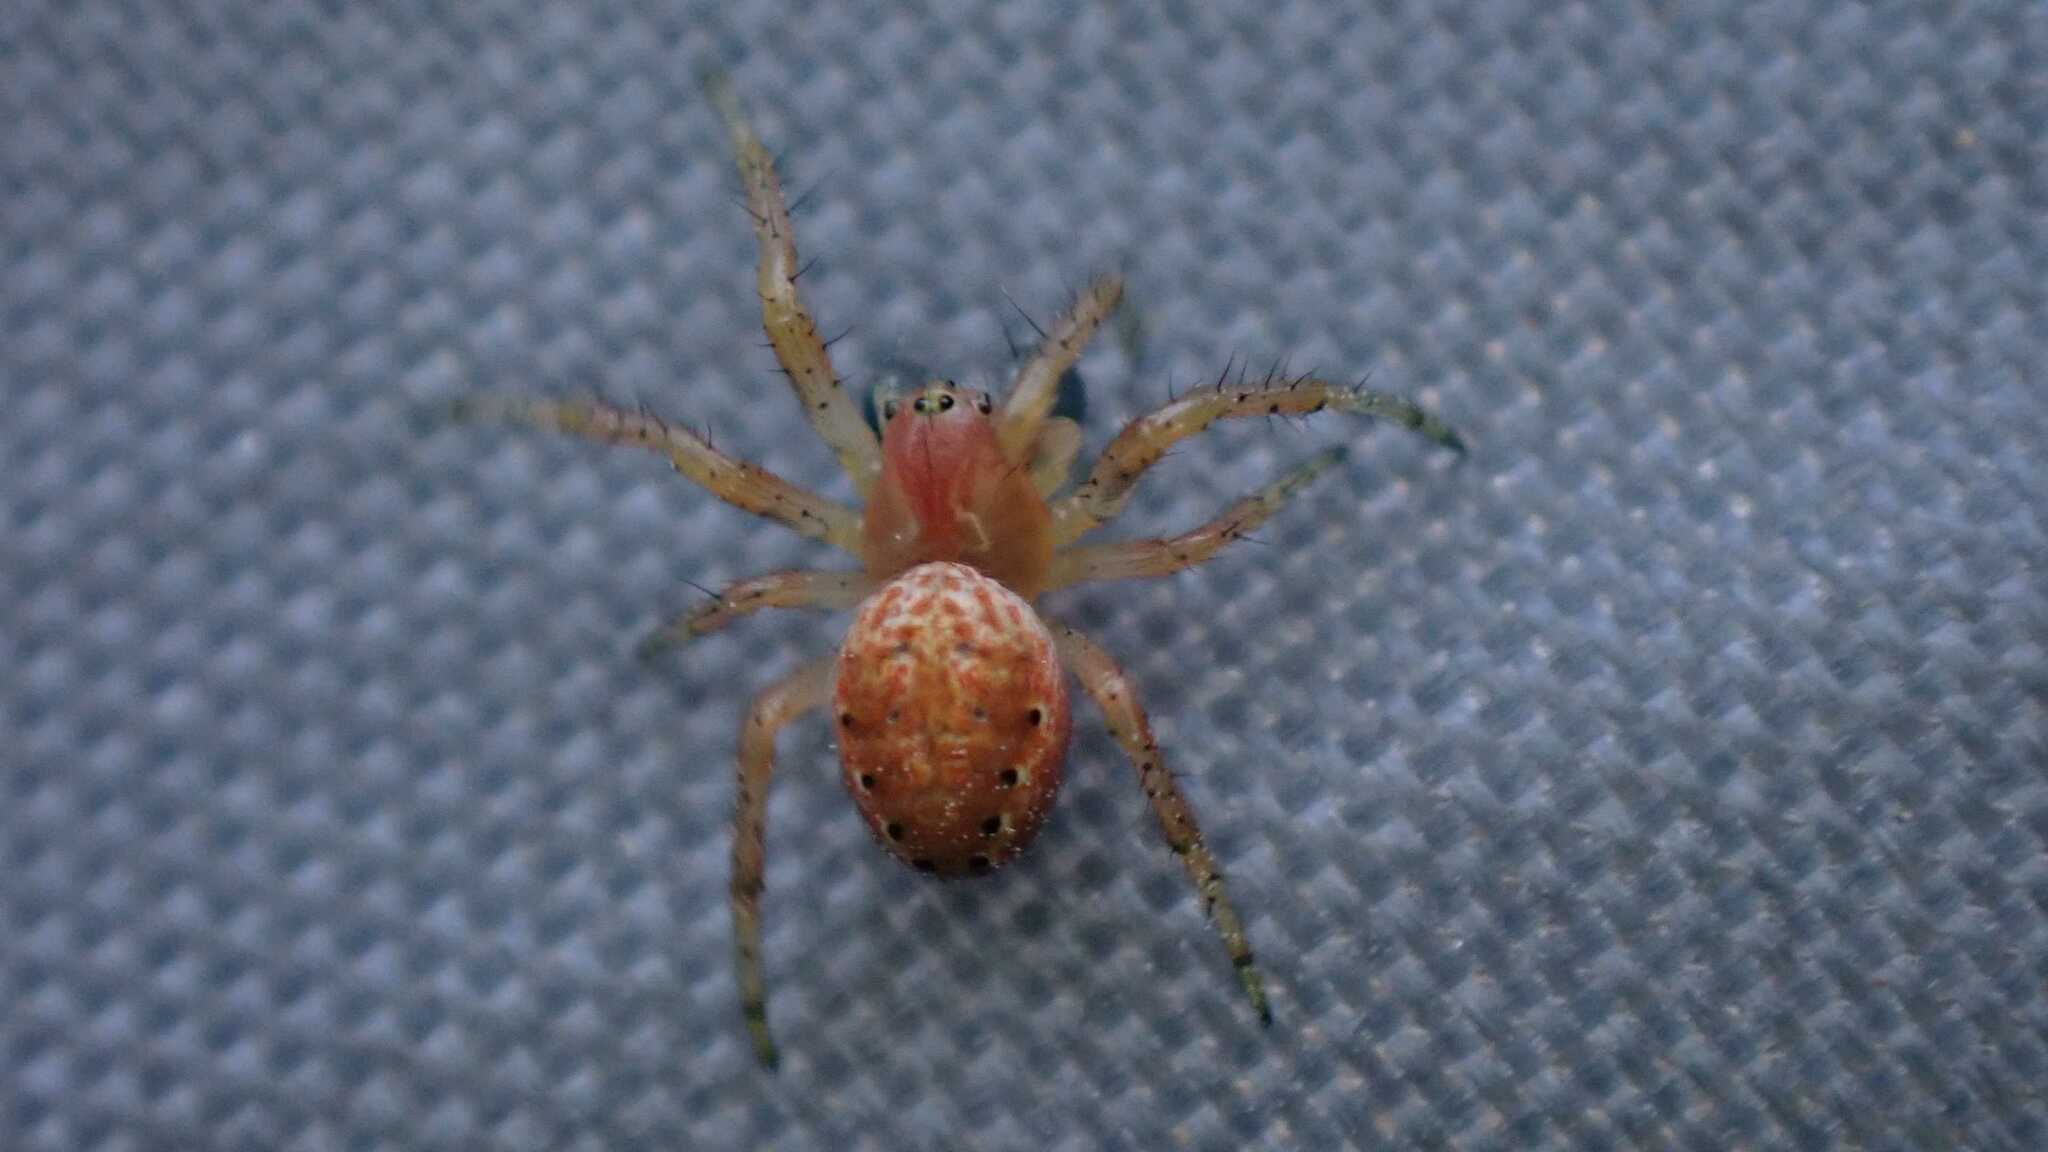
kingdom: Animalia
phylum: Arthropoda
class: Arachnida
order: Araneae
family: Araneidae
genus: Araniella
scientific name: Araniella
